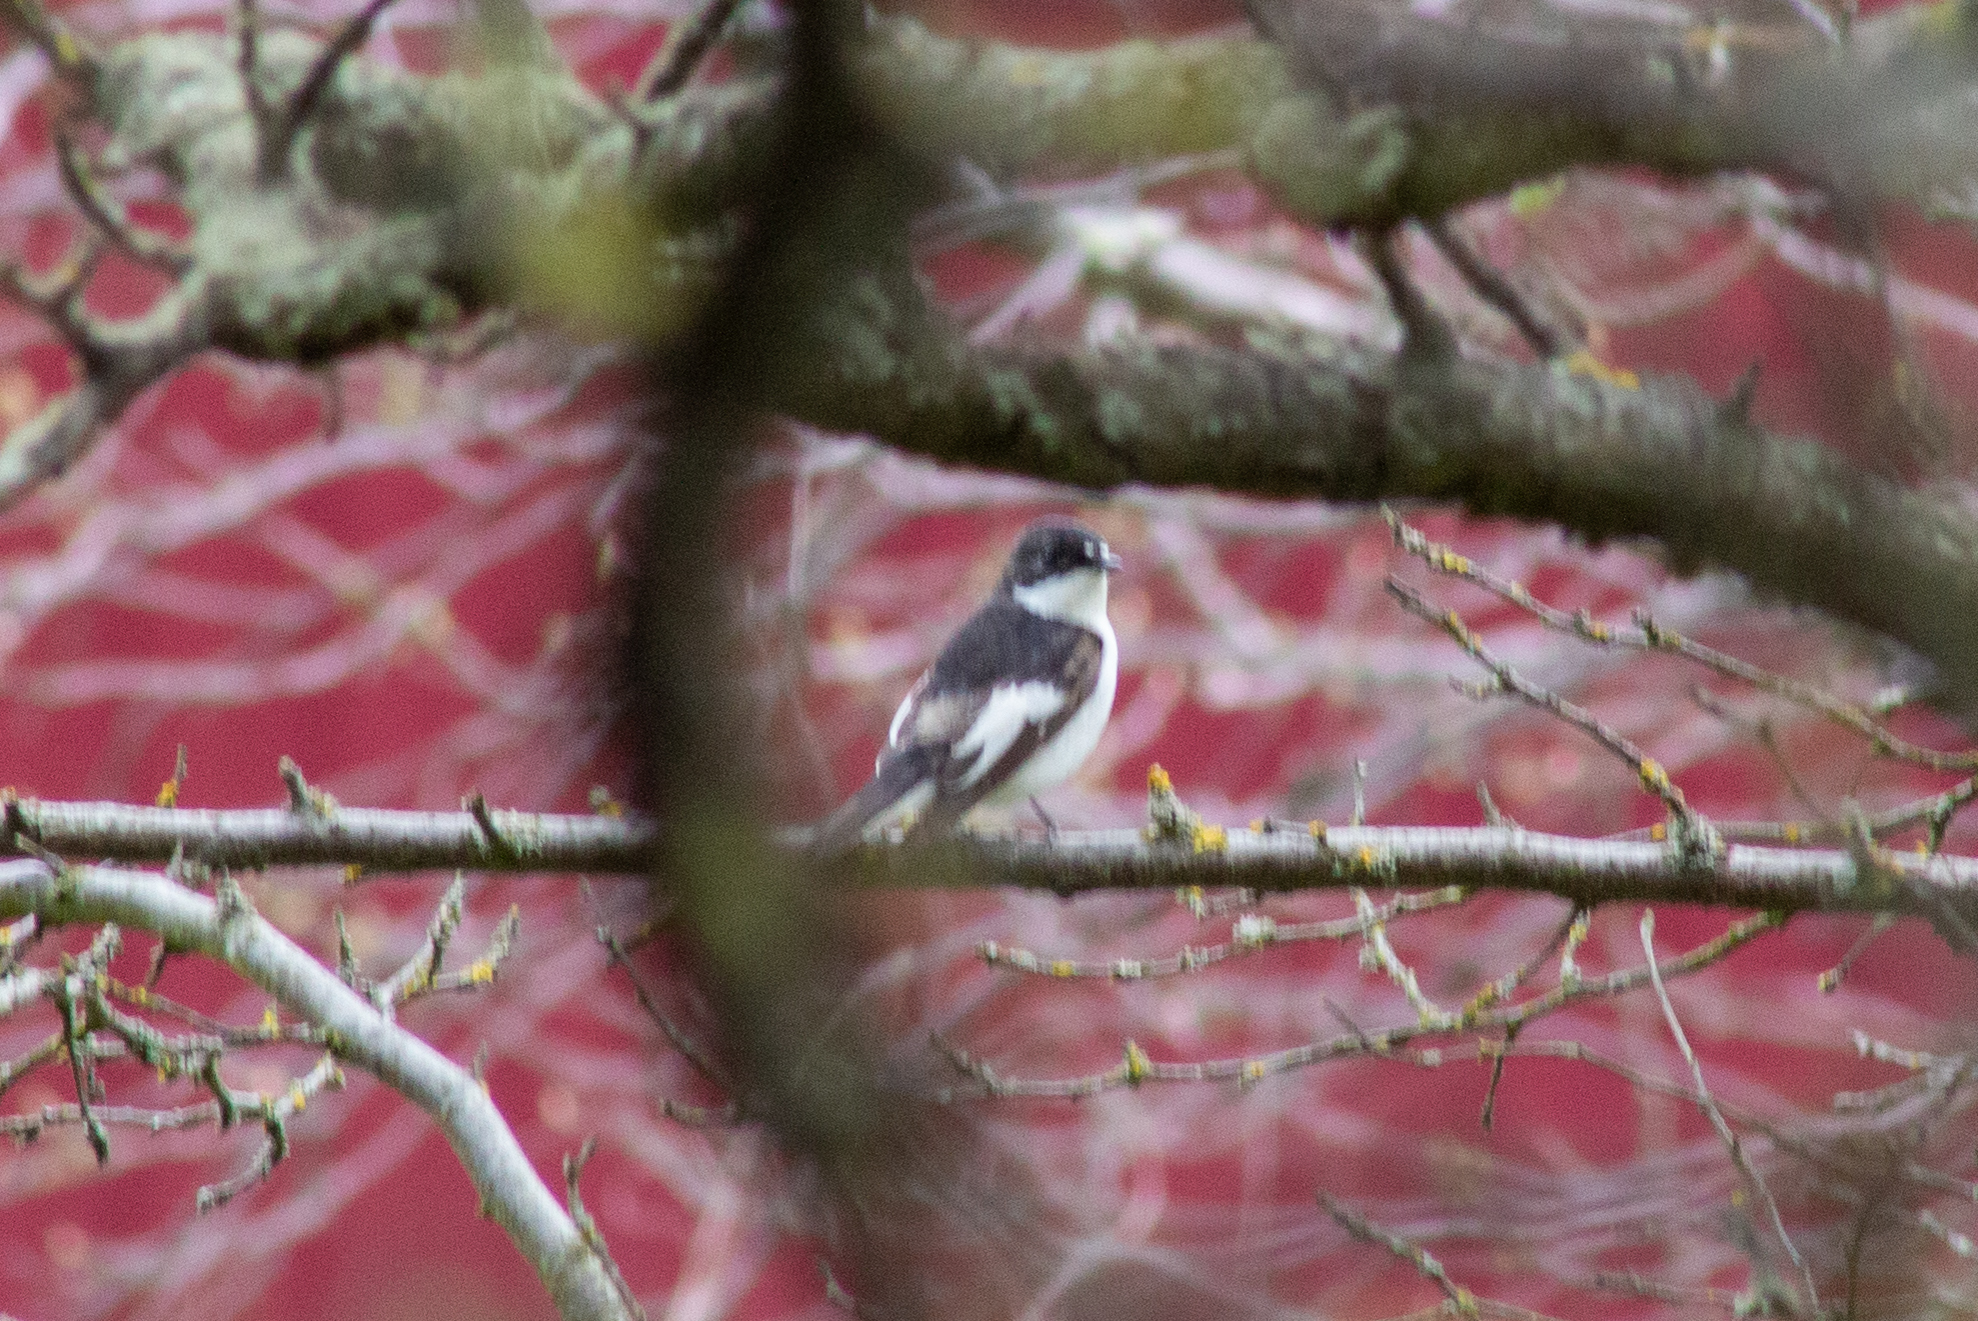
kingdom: Animalia
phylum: Chordata
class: Aves
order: Passeriformes
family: Muscicapidae
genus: Ficedula
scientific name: Ficedula hypoleuca
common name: European pied flycatcher
